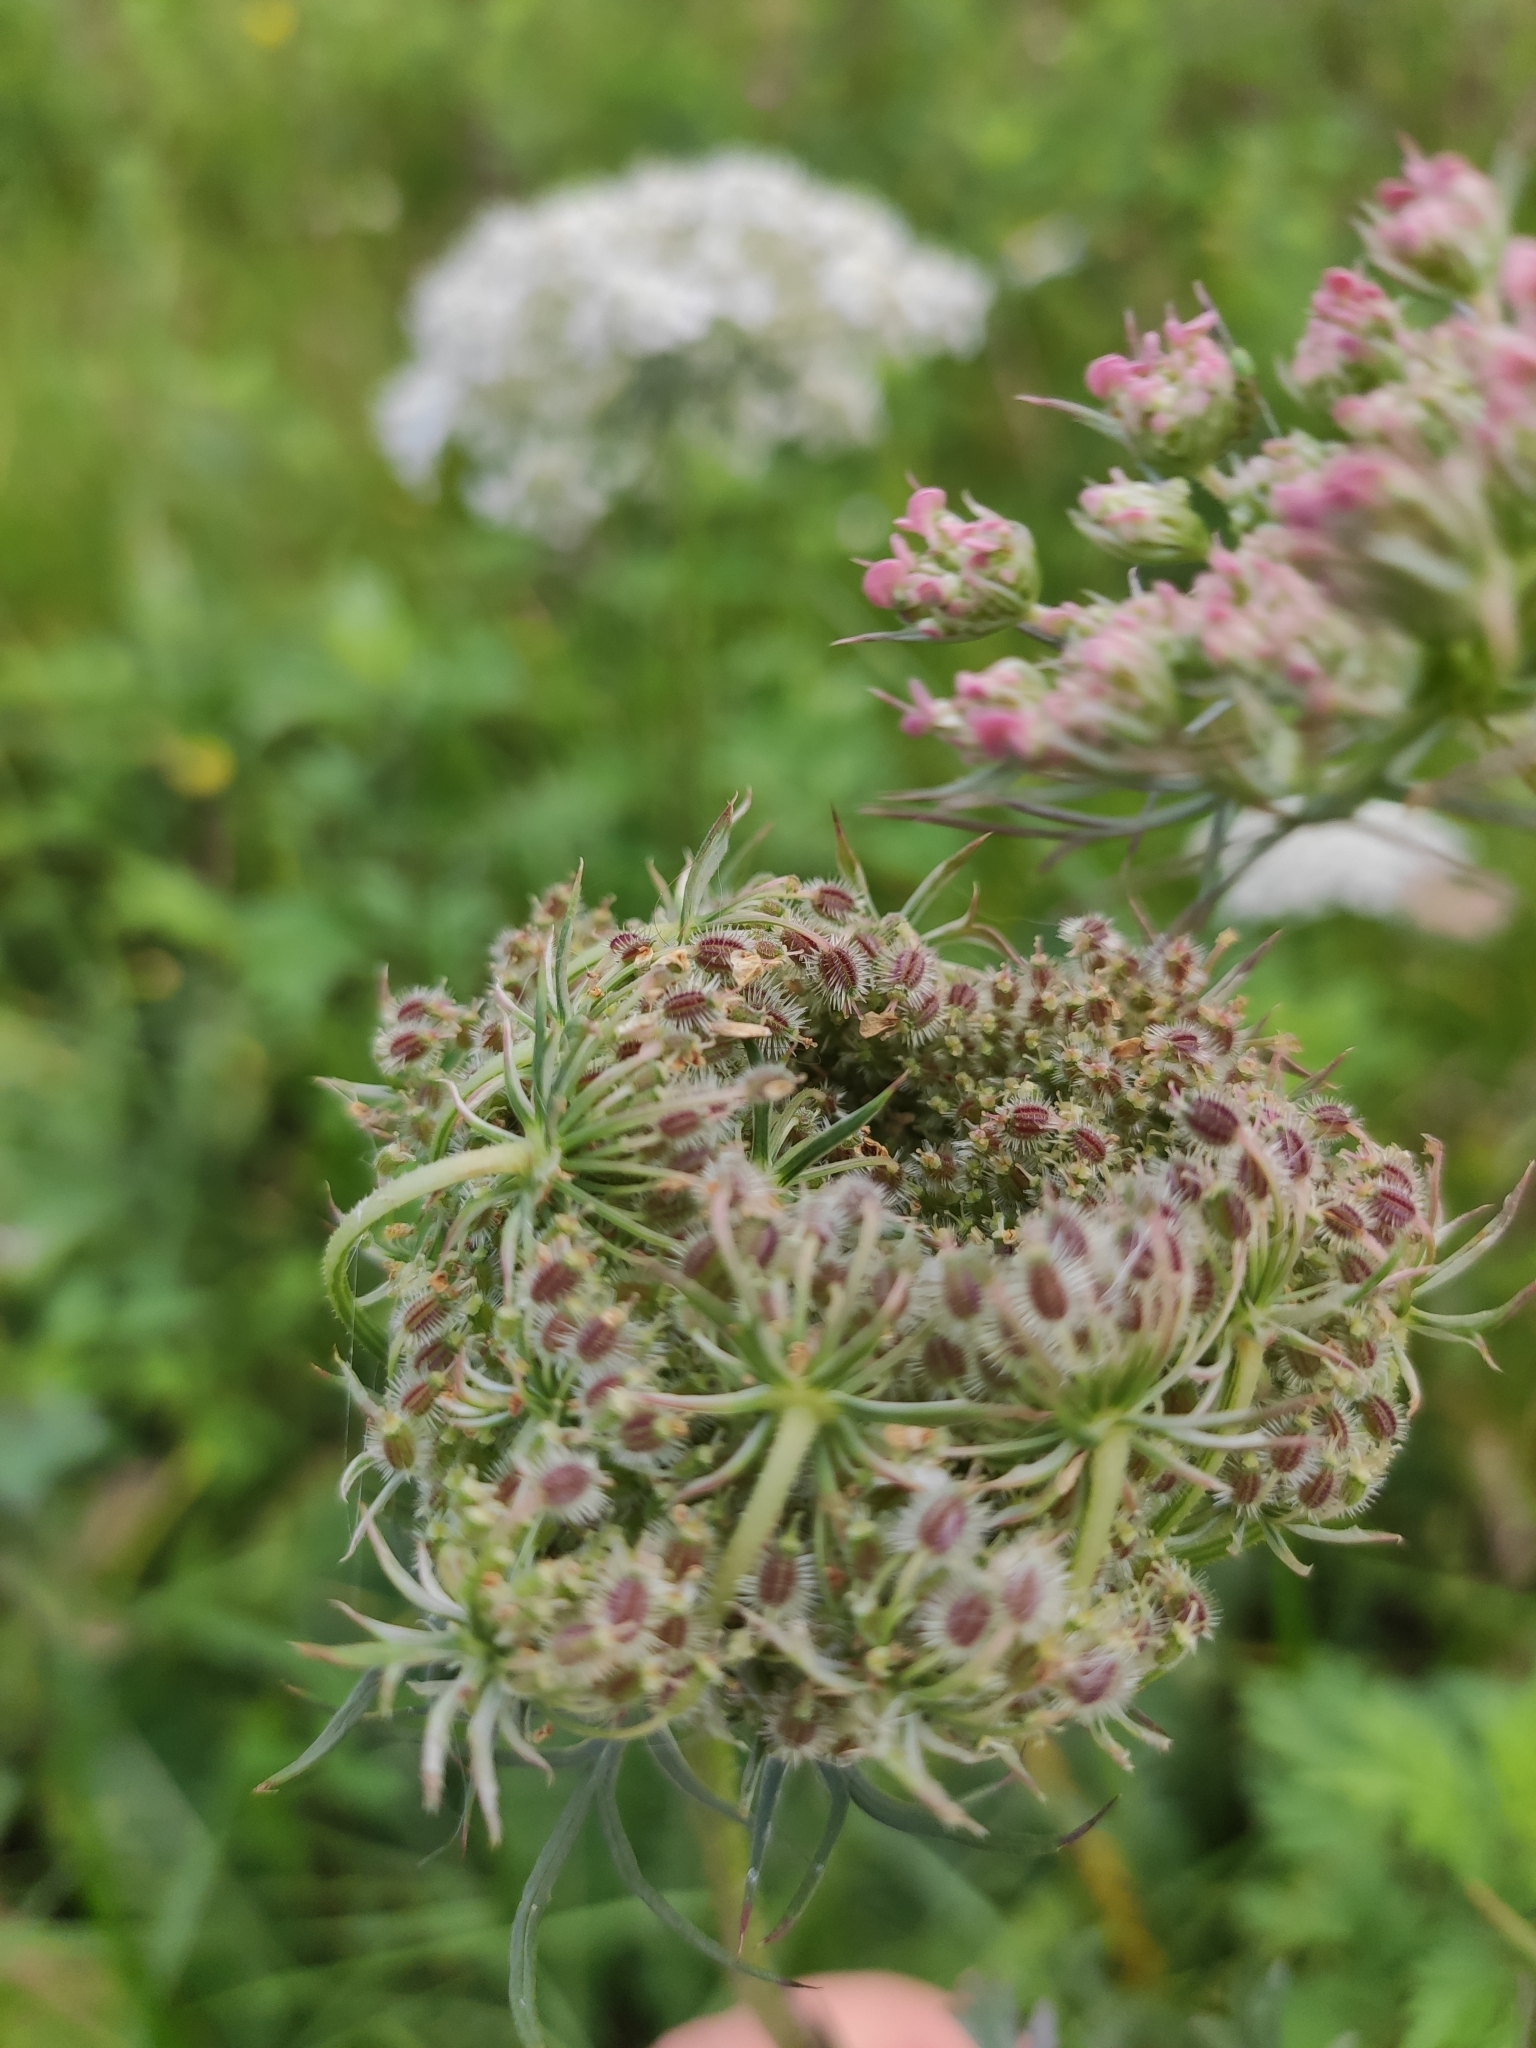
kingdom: Plantae
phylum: Tracheophyta
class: Magnoliopsida
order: Apiales
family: Apiaceae
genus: Daucus
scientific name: Daucus carota
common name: Wild carrot
